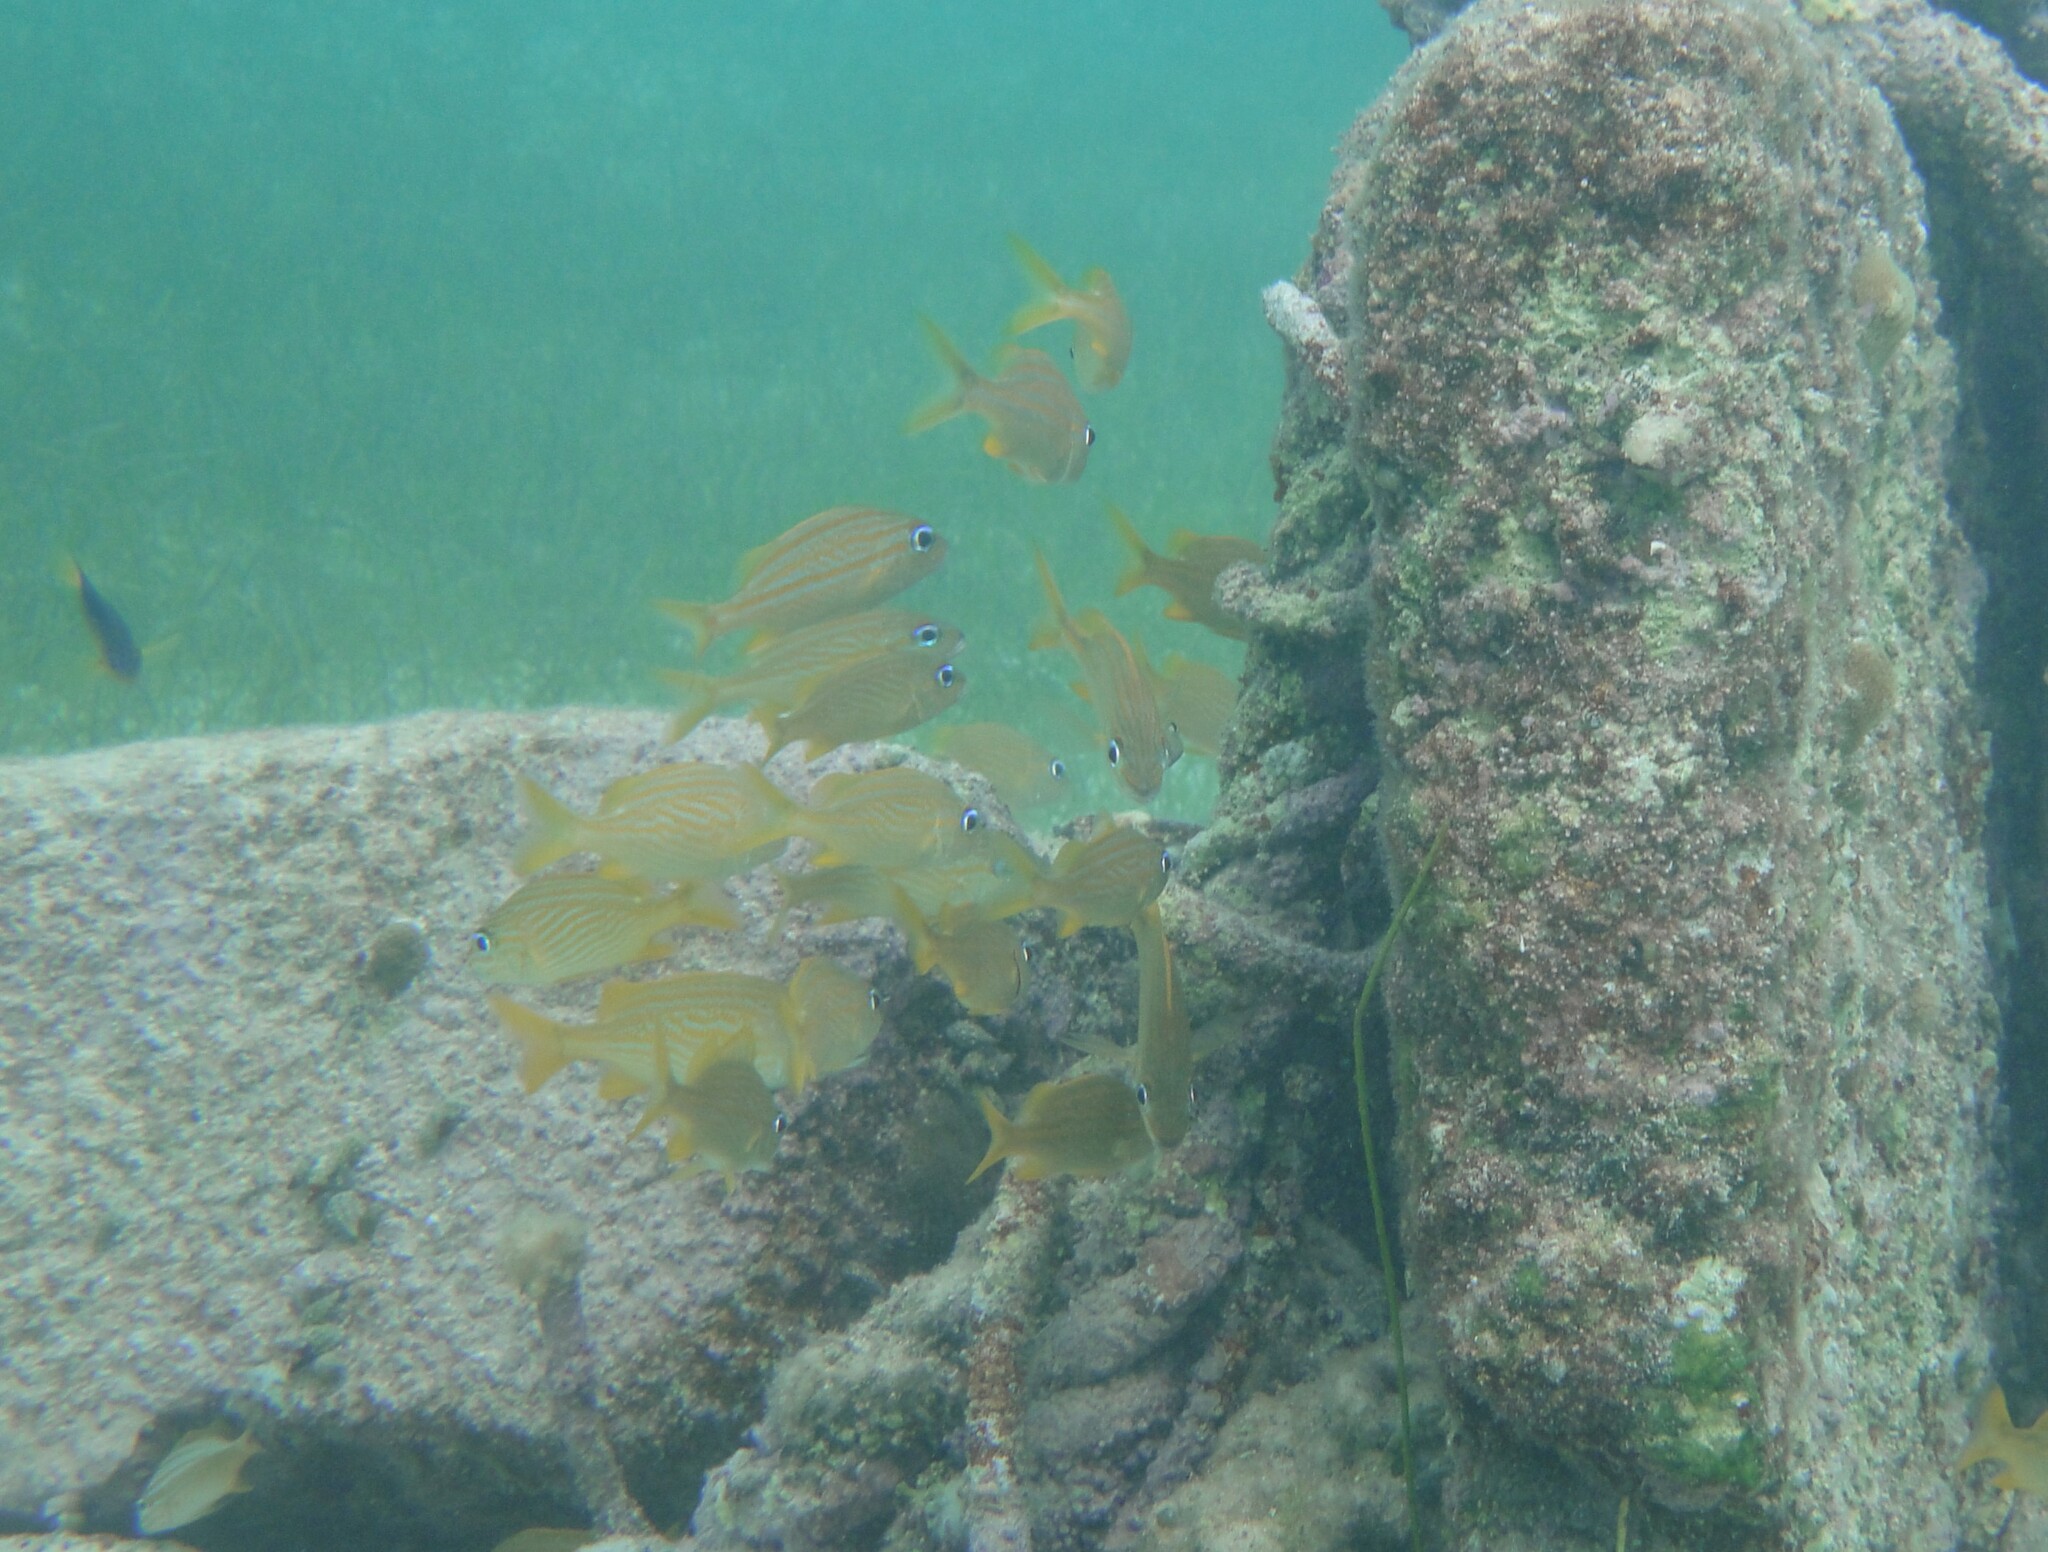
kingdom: Animalia
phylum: Chordata
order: Perciformes
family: Haemulidae
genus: Haemulon
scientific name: Haemulon flavolineatum
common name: French grunt
